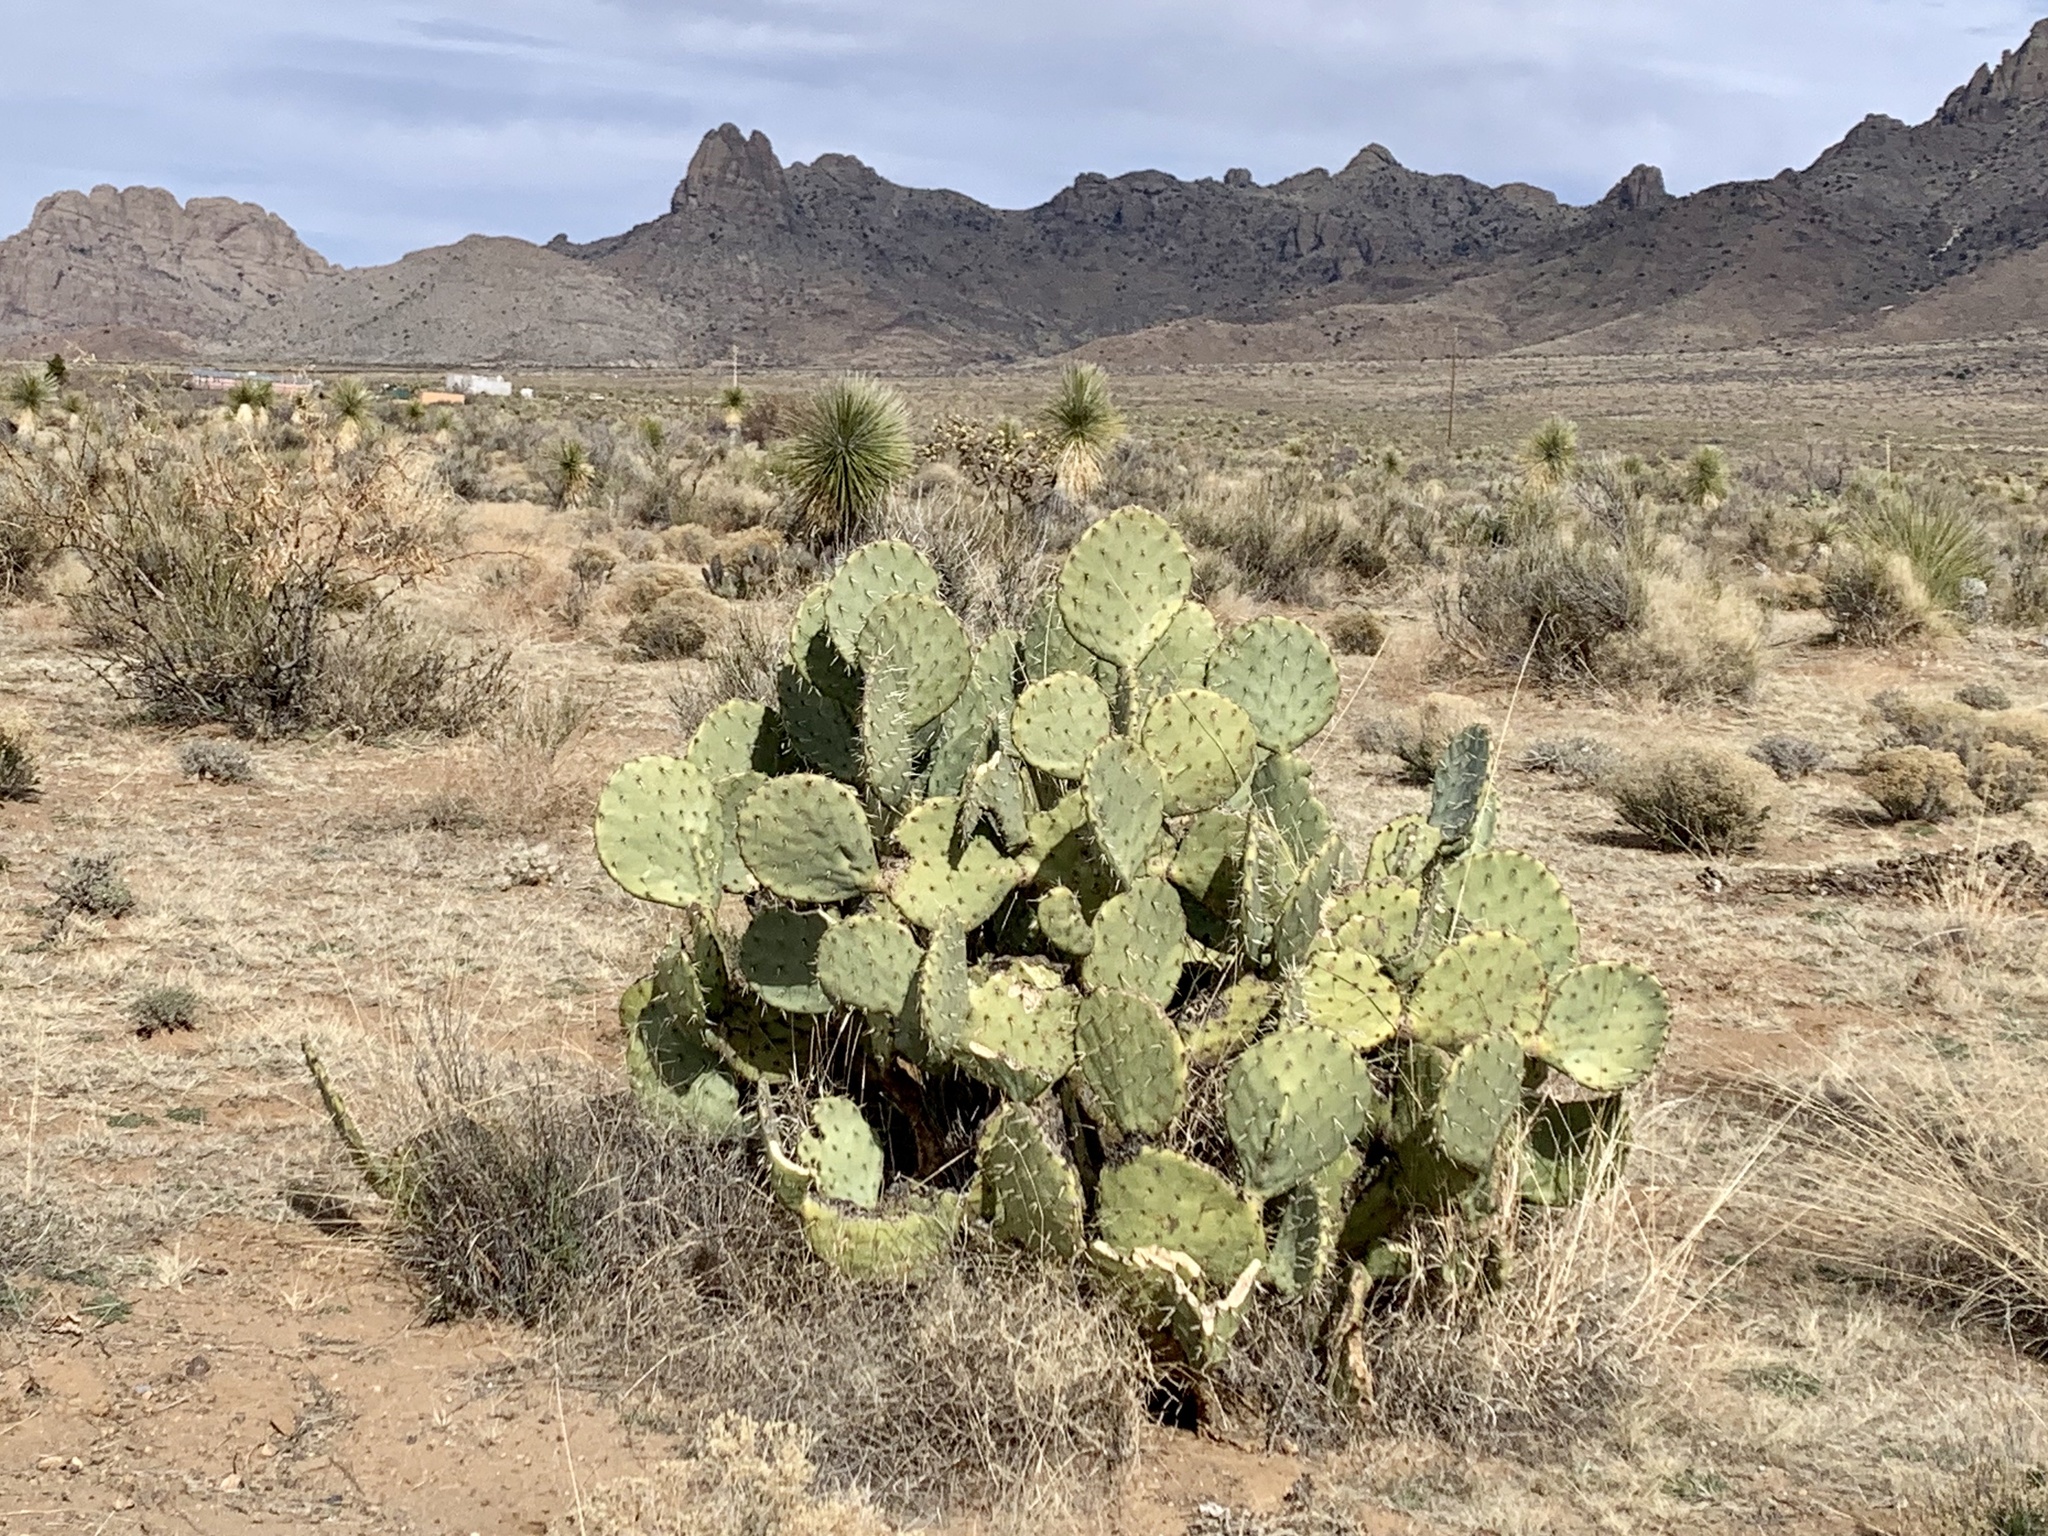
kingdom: Plantae
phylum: Tracheophyta
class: Magnoliopsida
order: Caryophyllales
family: Cactaceae
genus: Opuntia
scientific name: Opuntia engelmannii
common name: Cactus-apple
